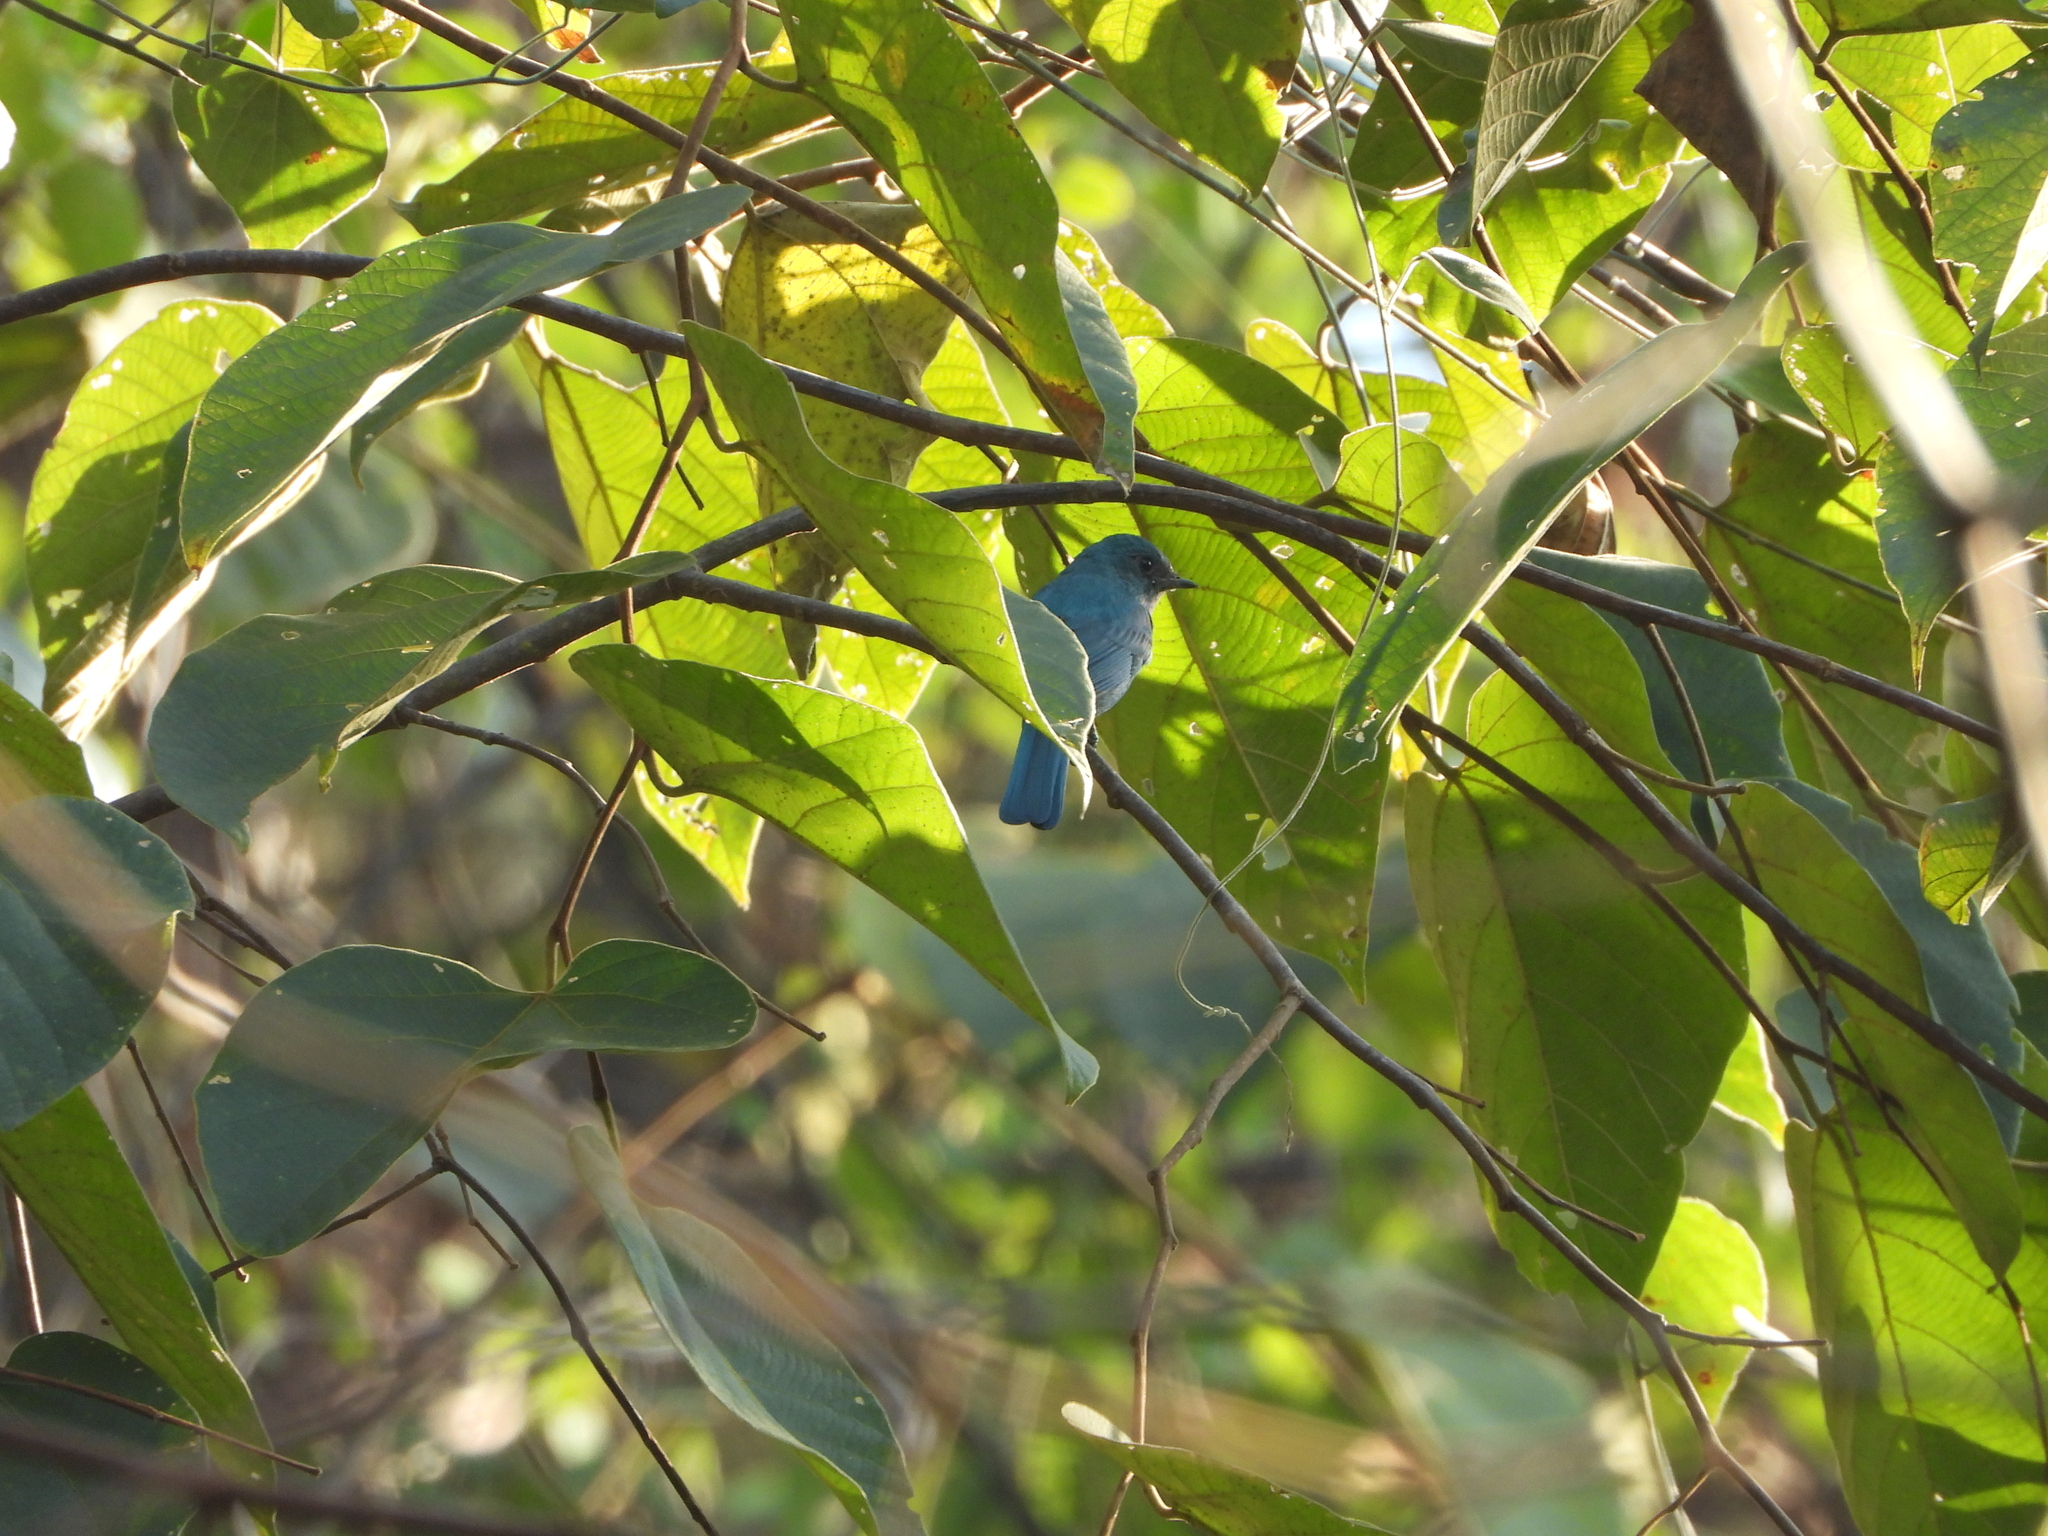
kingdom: Animalia
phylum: Chordata
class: Aves
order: Passeriformes
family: Muscicapidae
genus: Eumyias
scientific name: Eumyias thalassinus
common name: Verditer flycatcher
